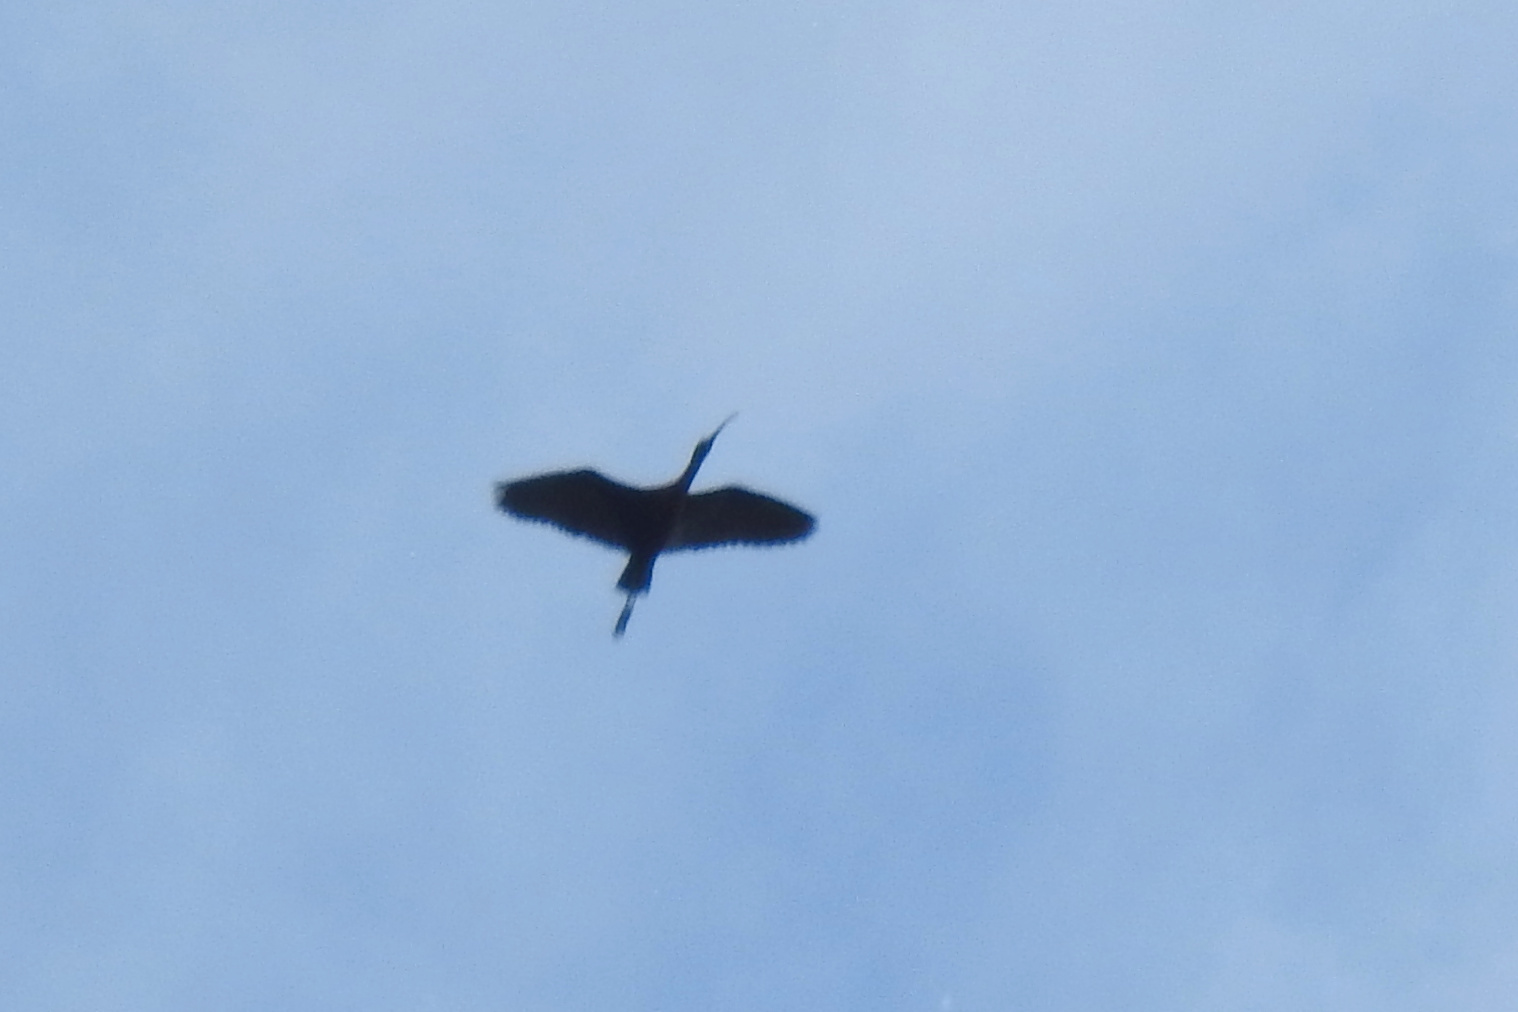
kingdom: Animalia
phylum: Chordata
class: Aves
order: Pelecaniformes
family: Threskiornithidae
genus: Plegadis
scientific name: Plegadis falcinellus
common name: Glossy ibis
